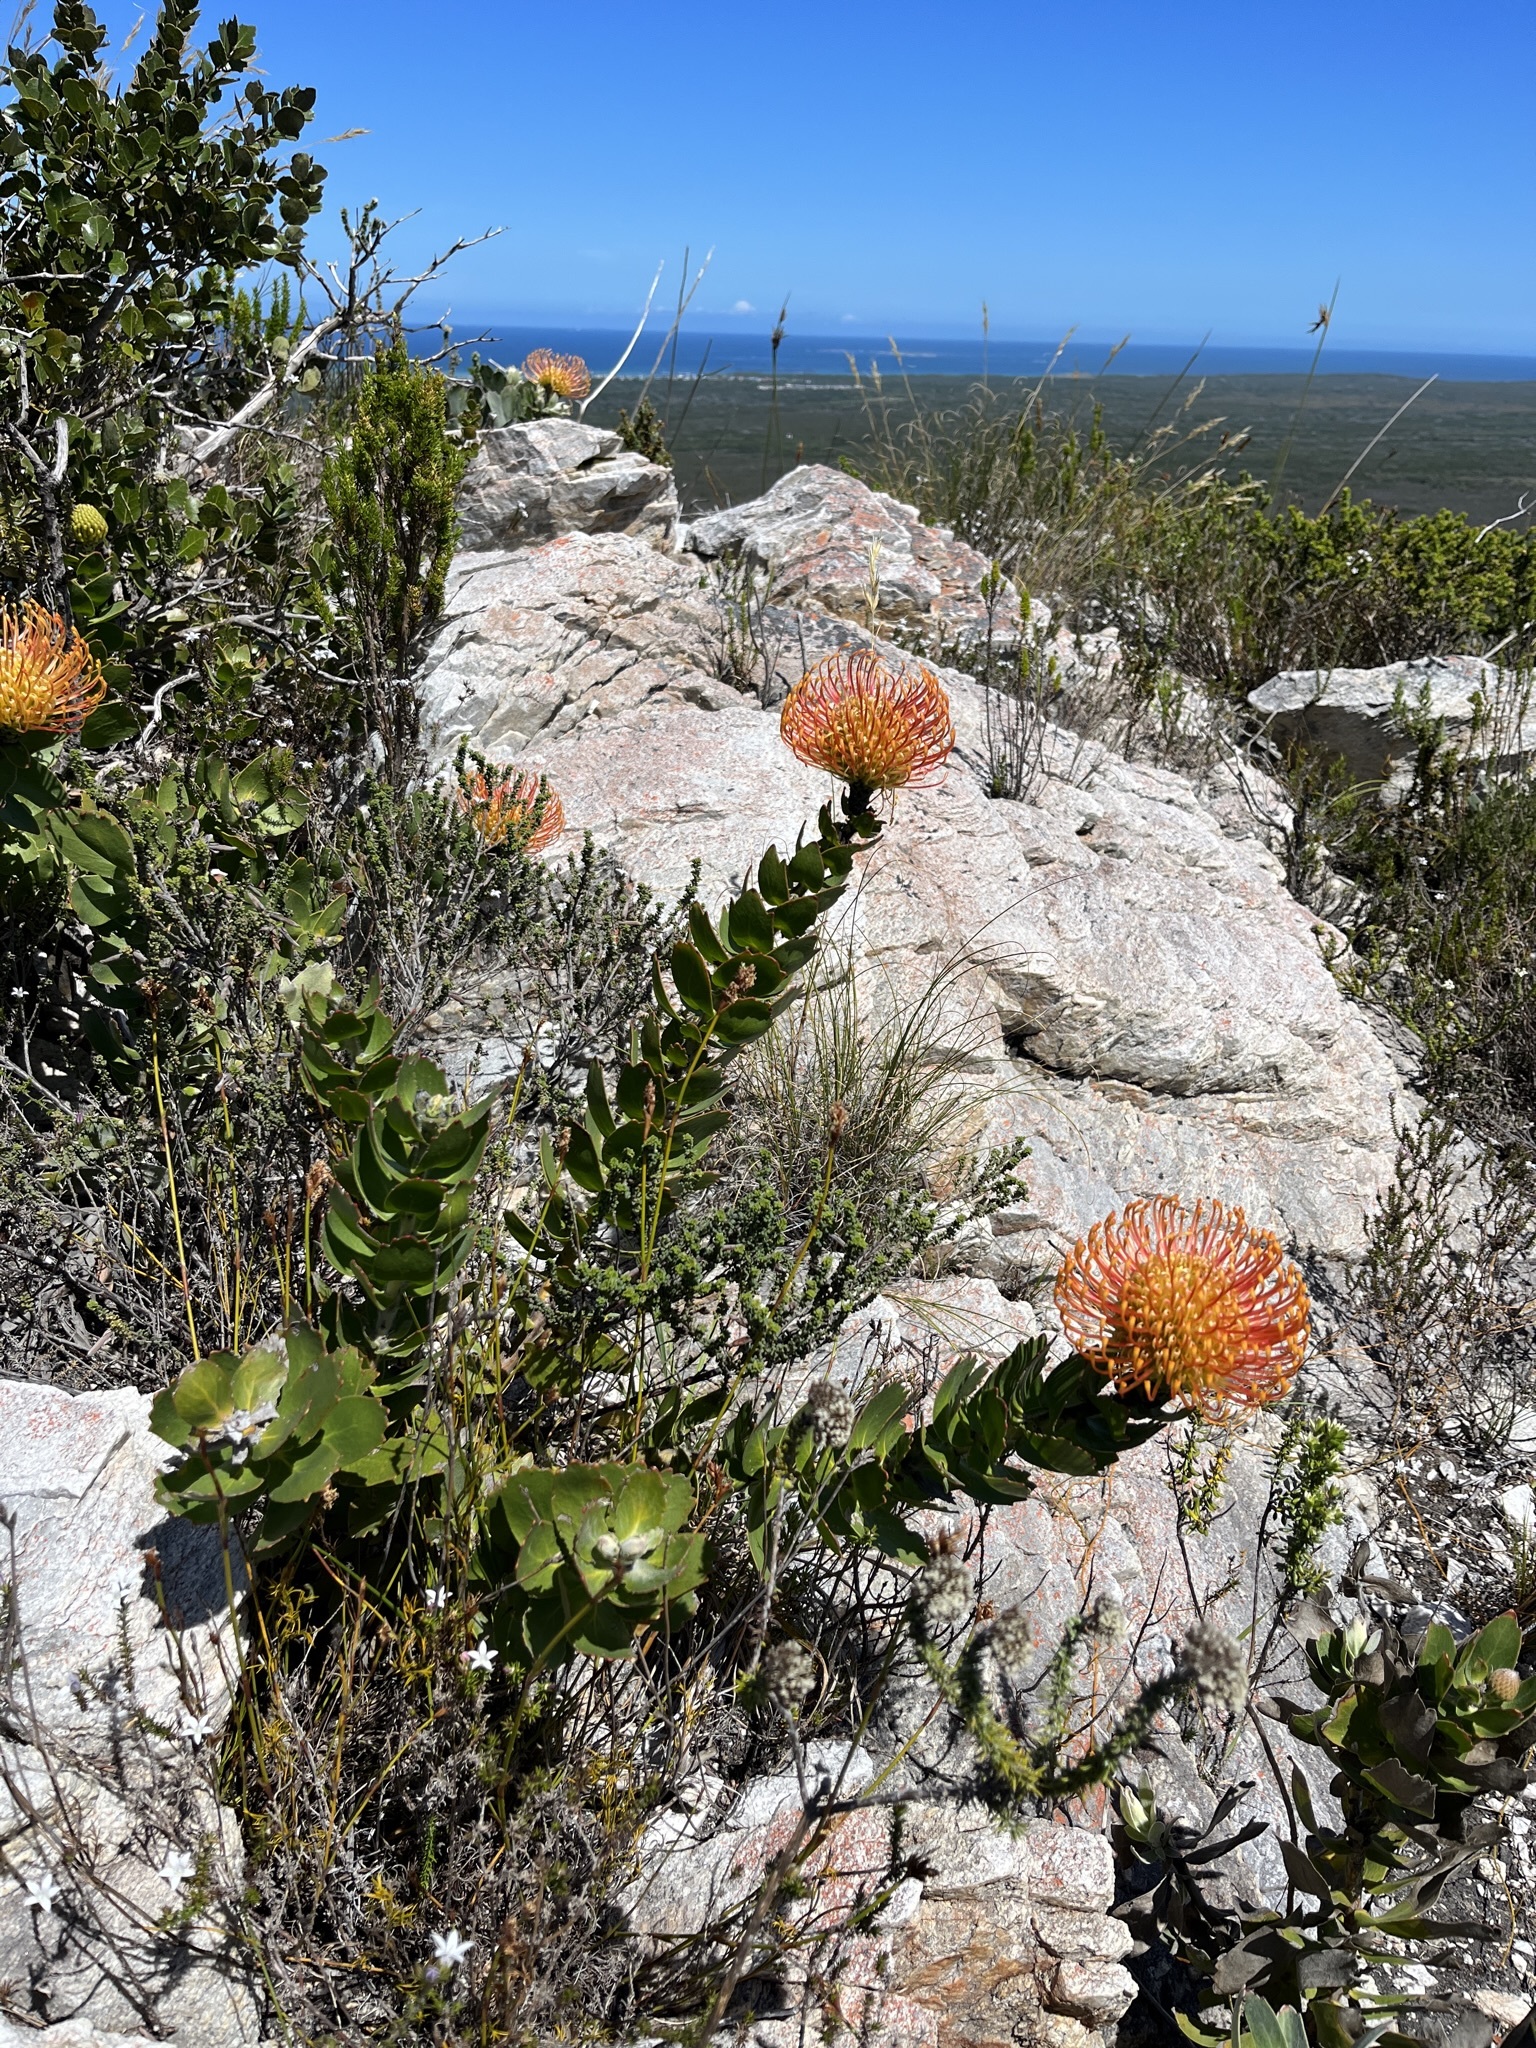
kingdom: Plantae
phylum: Tracheophyta
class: Magnoliopsida
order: Proteales
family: Proteaceae
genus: Leucospermum
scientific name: Leucospermum cordifolium
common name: Red pincushion-protea
